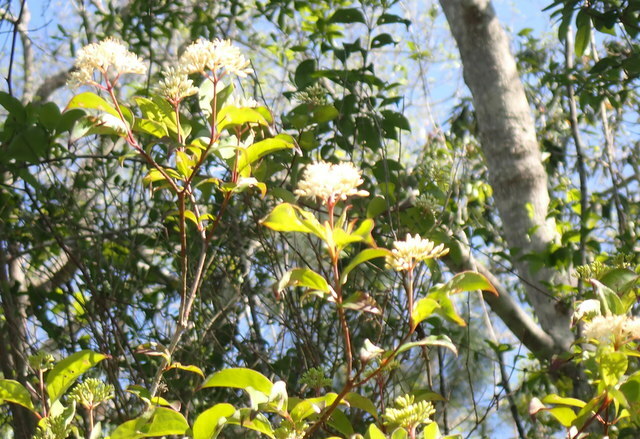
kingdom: Plantae
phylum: Tracheophyta
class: Magnoliopsida
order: Cornales
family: Cornaceae
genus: Cornus
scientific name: Cornus foemina
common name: Swamp dogwood
